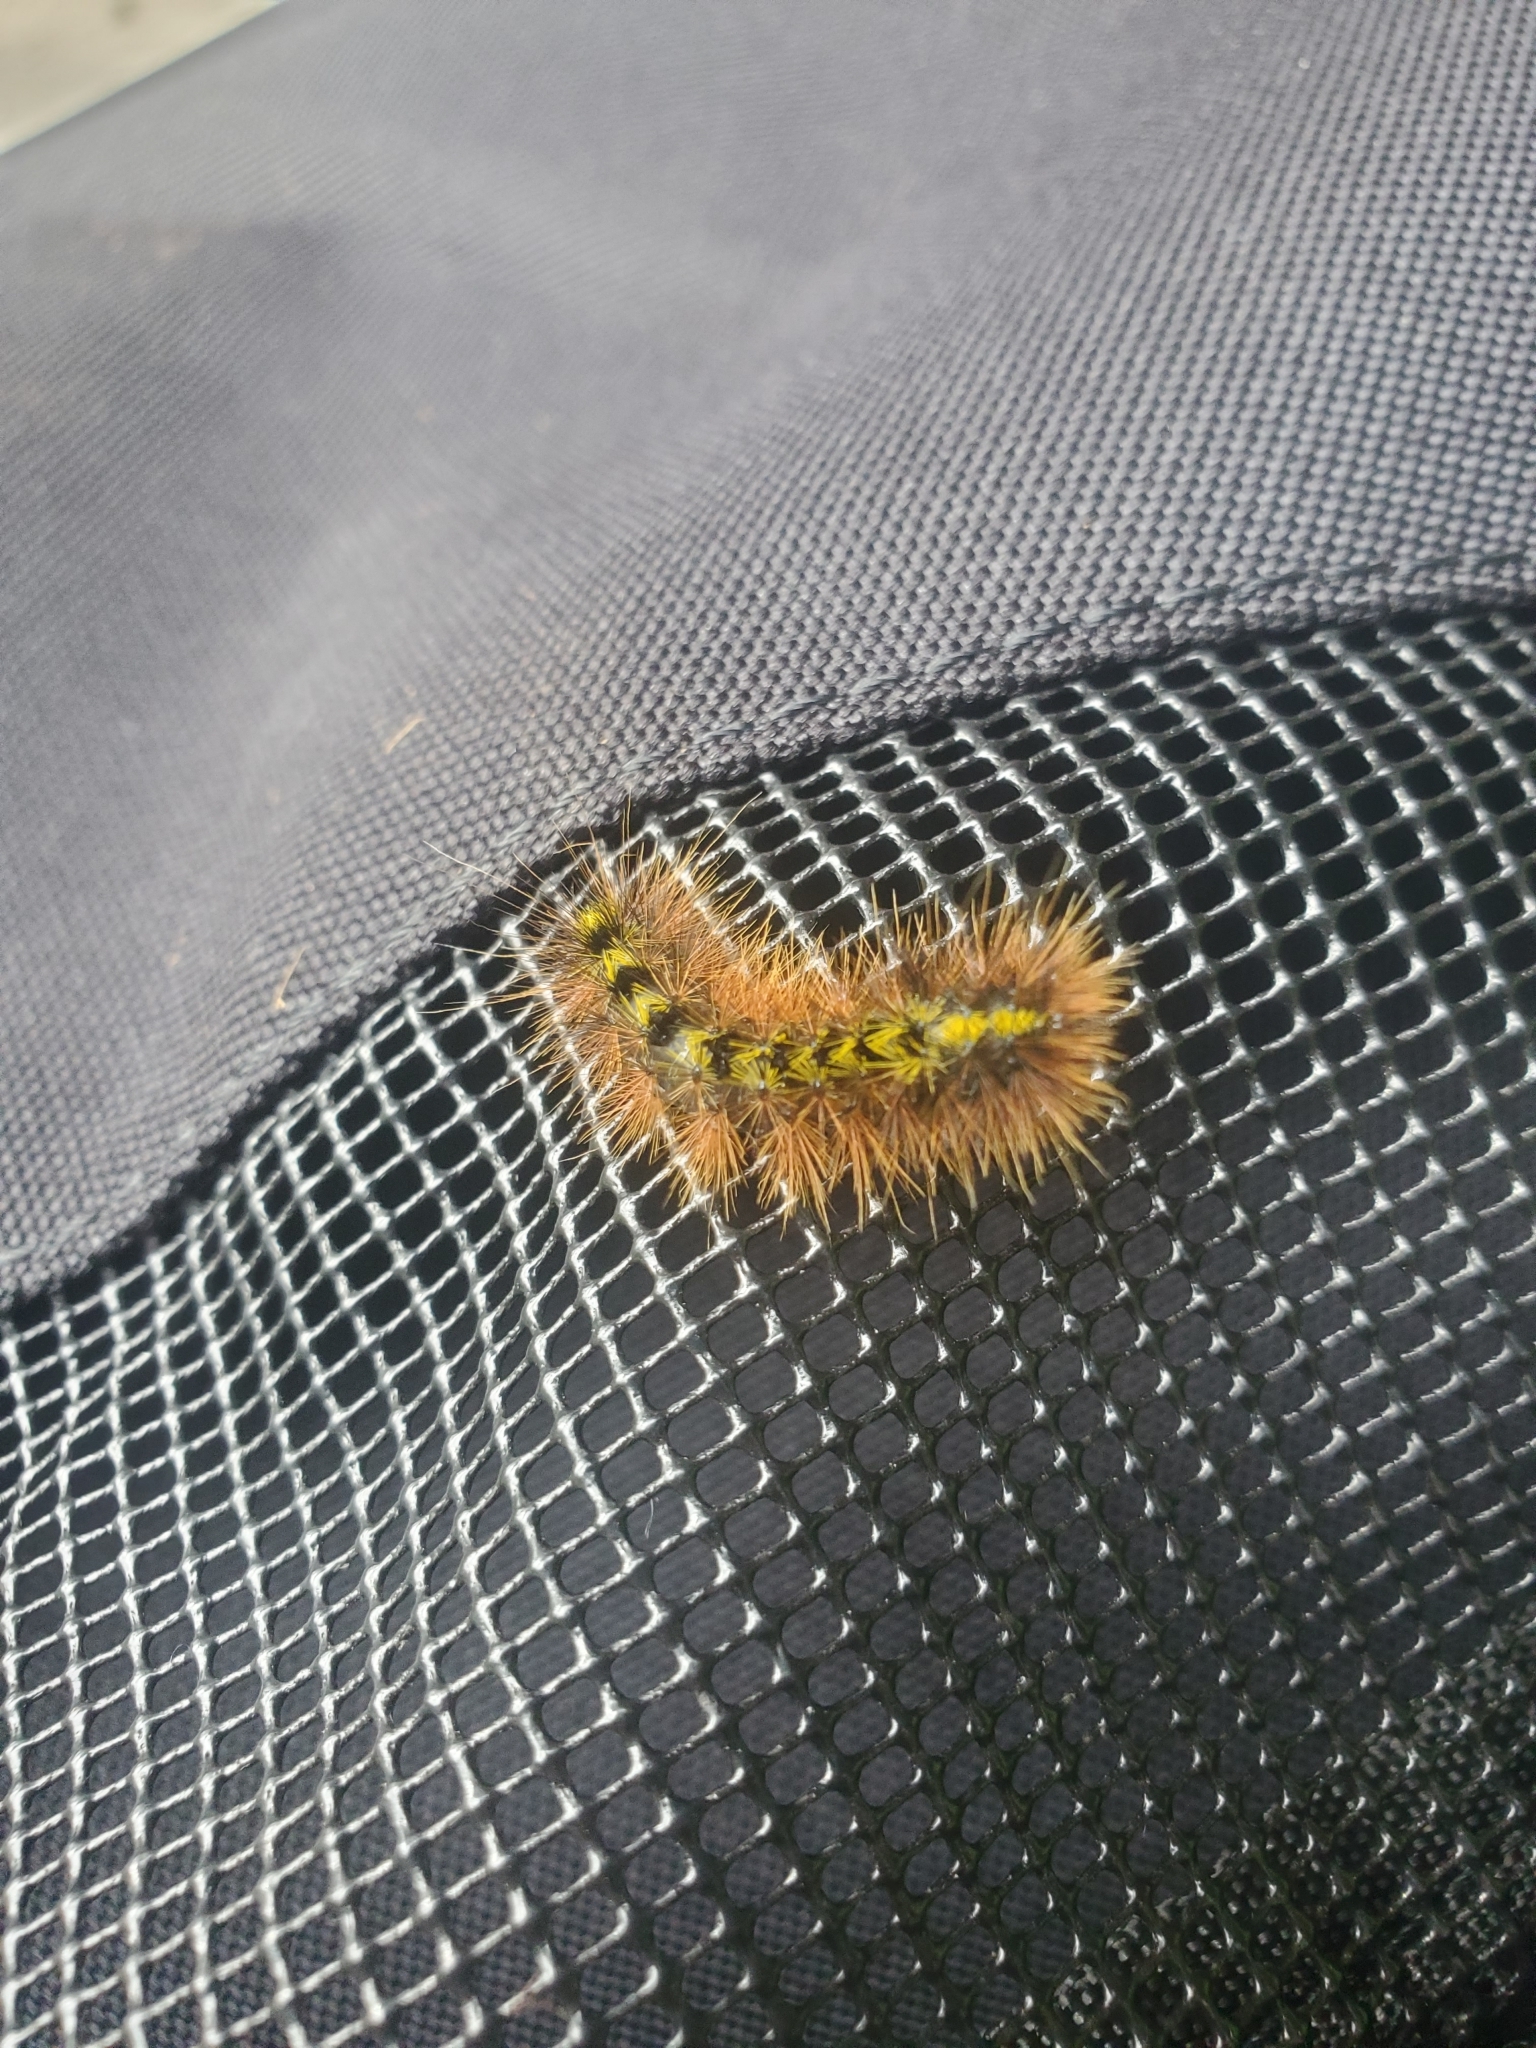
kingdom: Animalia
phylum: Arthropoda
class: Insecta
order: Lepidoptera
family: Erebidae
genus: Lophocampa
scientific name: Lophocampa argentata
